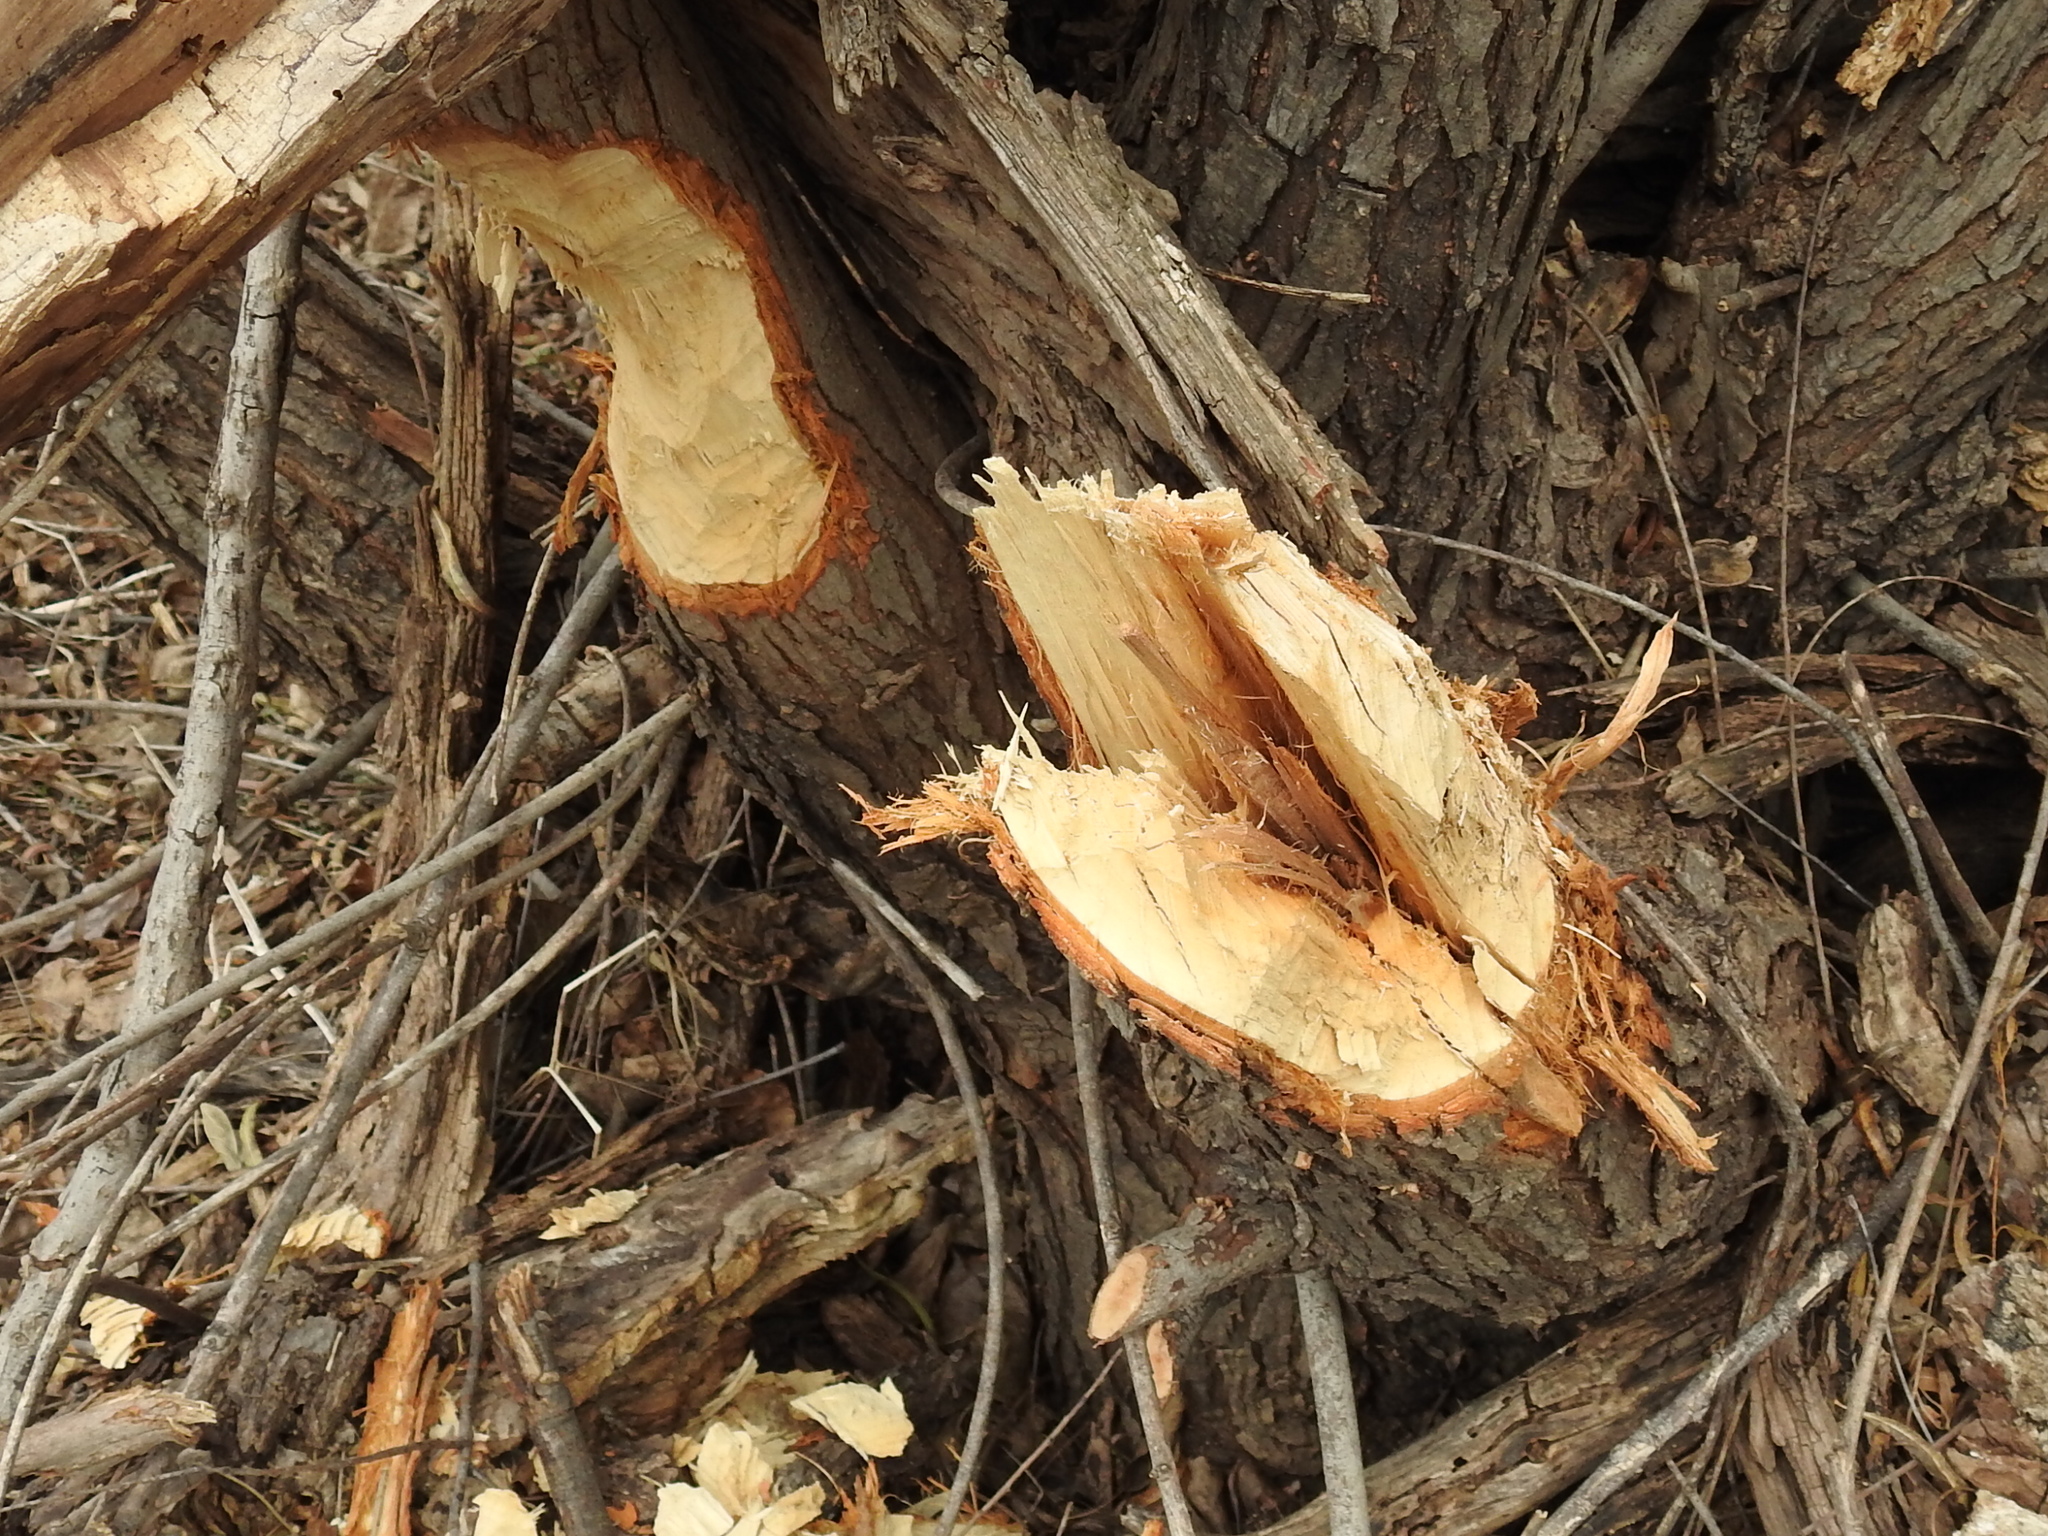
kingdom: Animalia
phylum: Chordata
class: Mammalia
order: Rodentia
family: Castoridae
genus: Castor
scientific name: Castor canadensis
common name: American beaver
